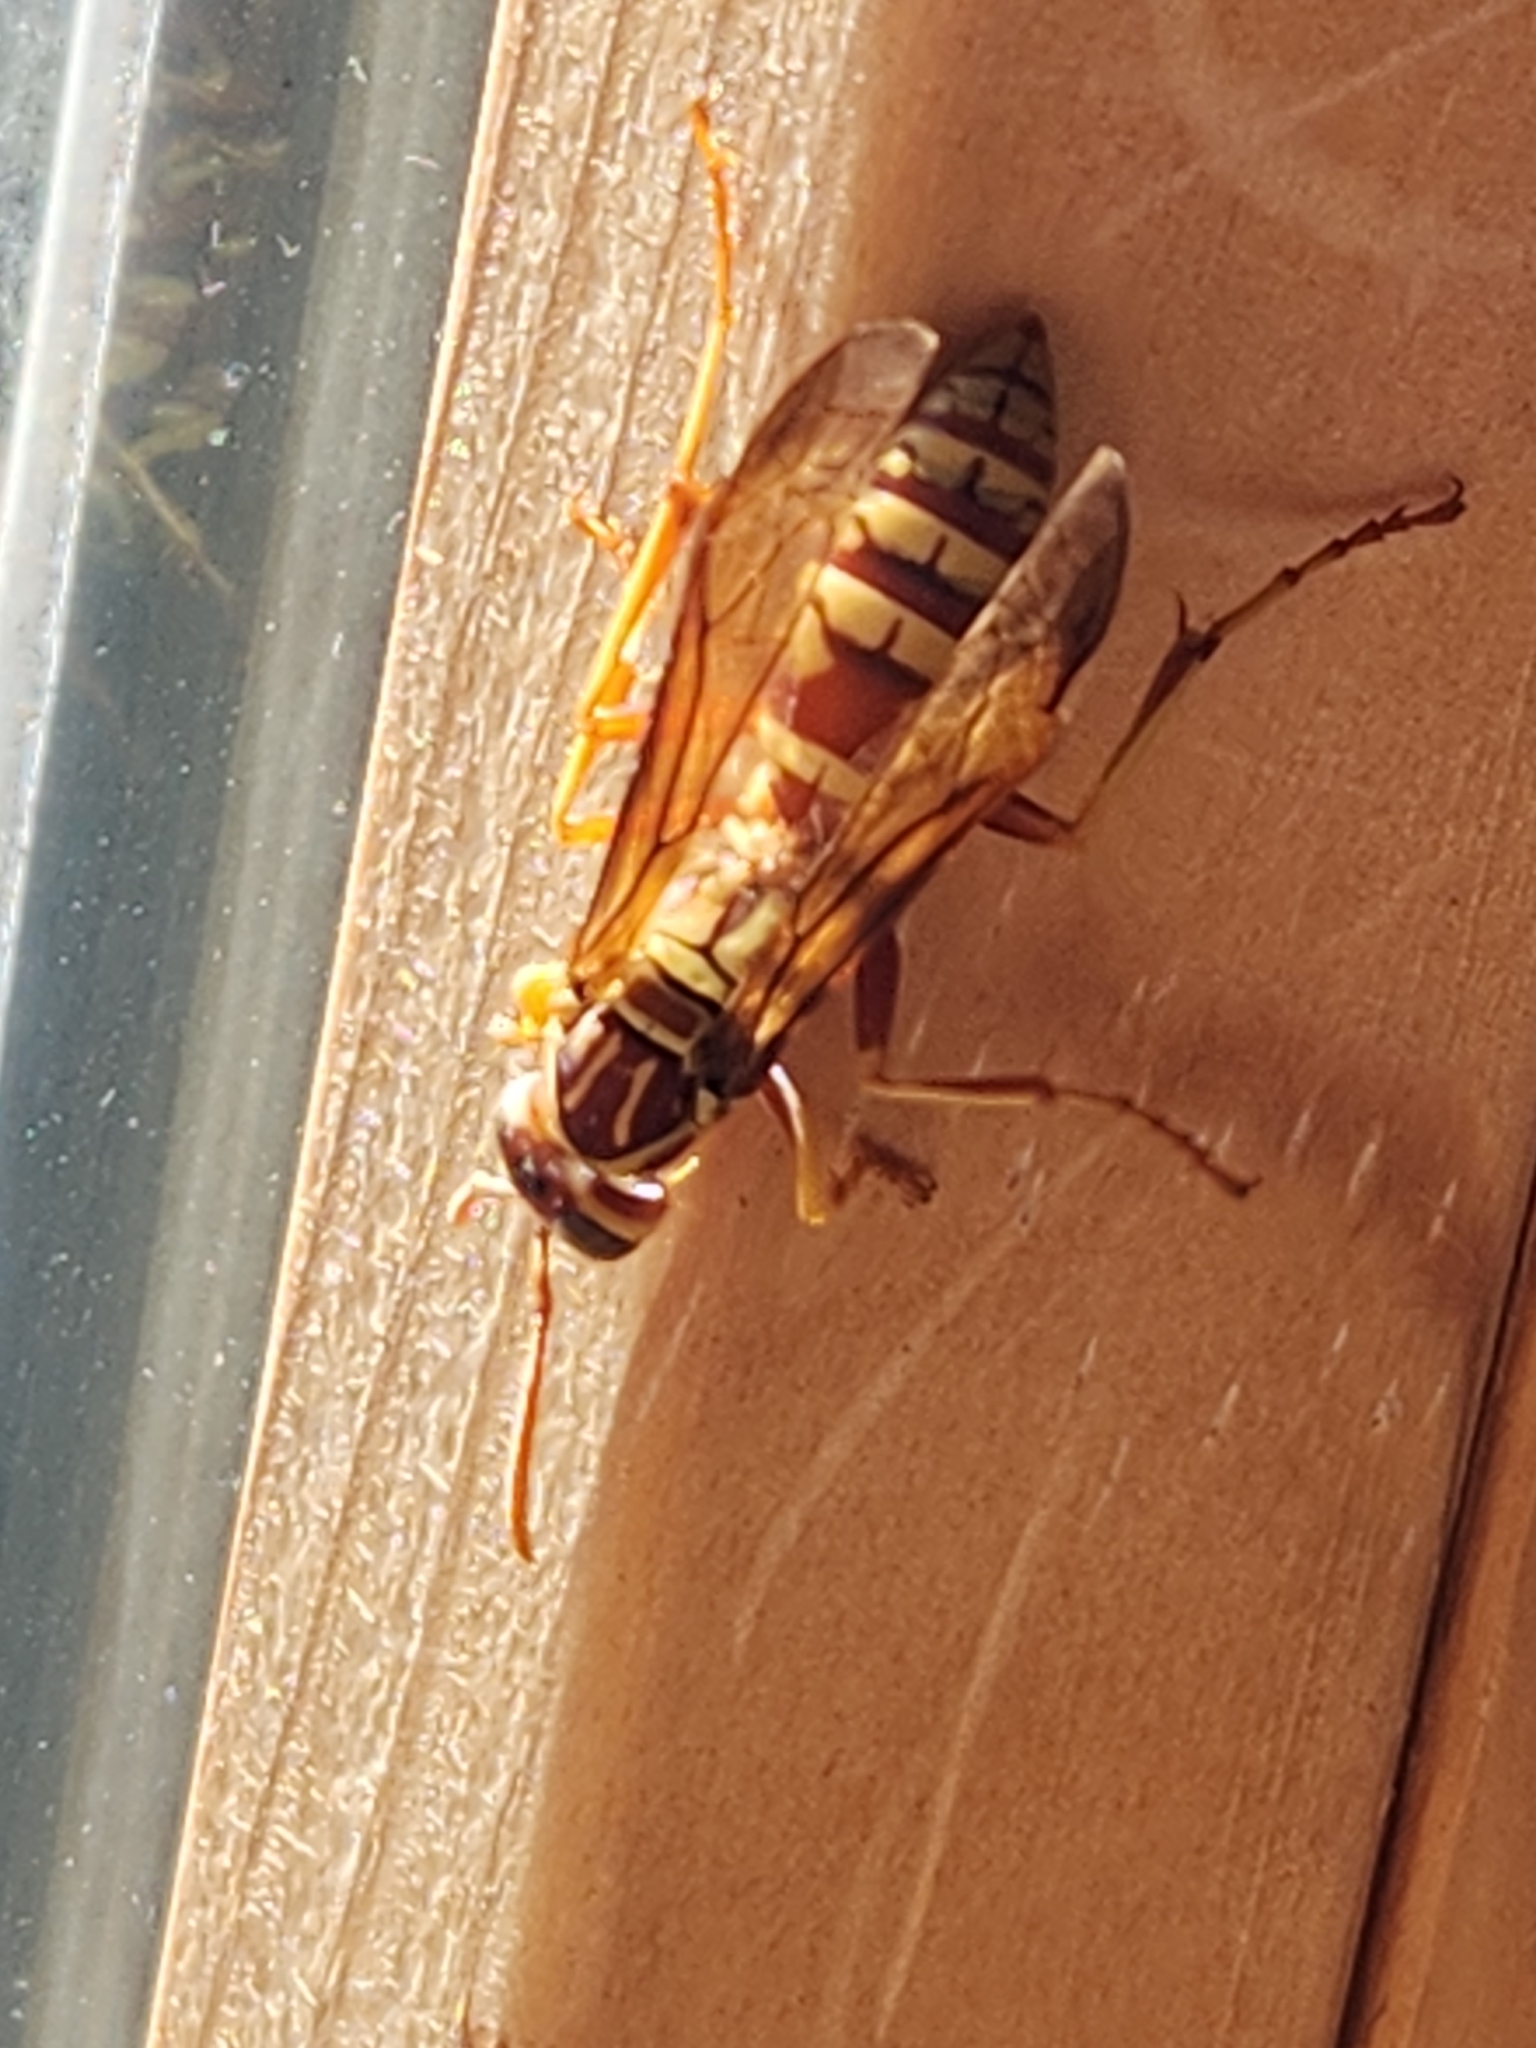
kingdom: Animalia
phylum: Arthropoda
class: Insecta
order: Hymenoptera
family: Eumenidae
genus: Polistes
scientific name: Polistes apachus
